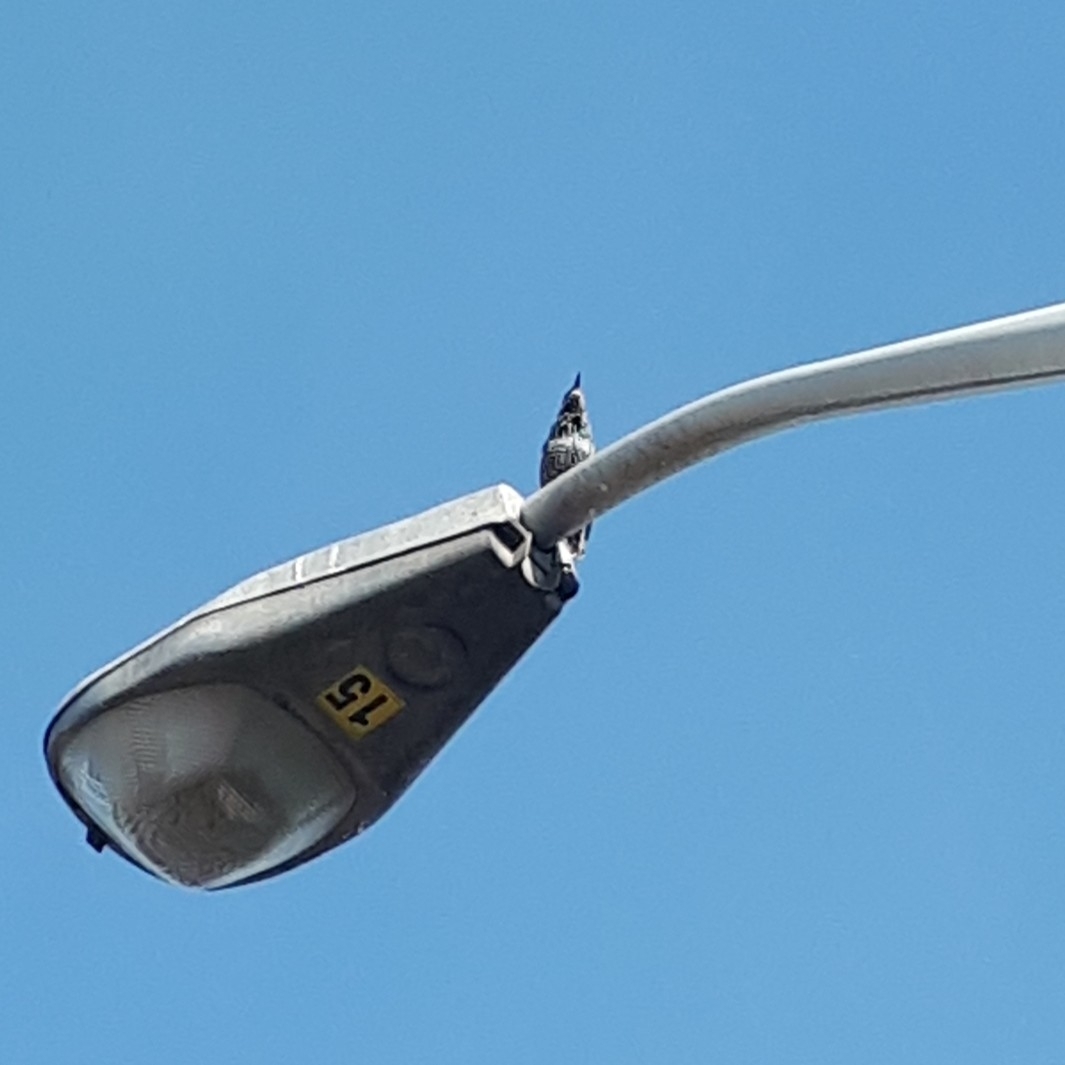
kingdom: Animalia
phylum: Chordata
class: Aves
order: Passeriformes
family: Sturnidae
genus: Sturnus
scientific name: Sturnus vulgaris
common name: Common starling
